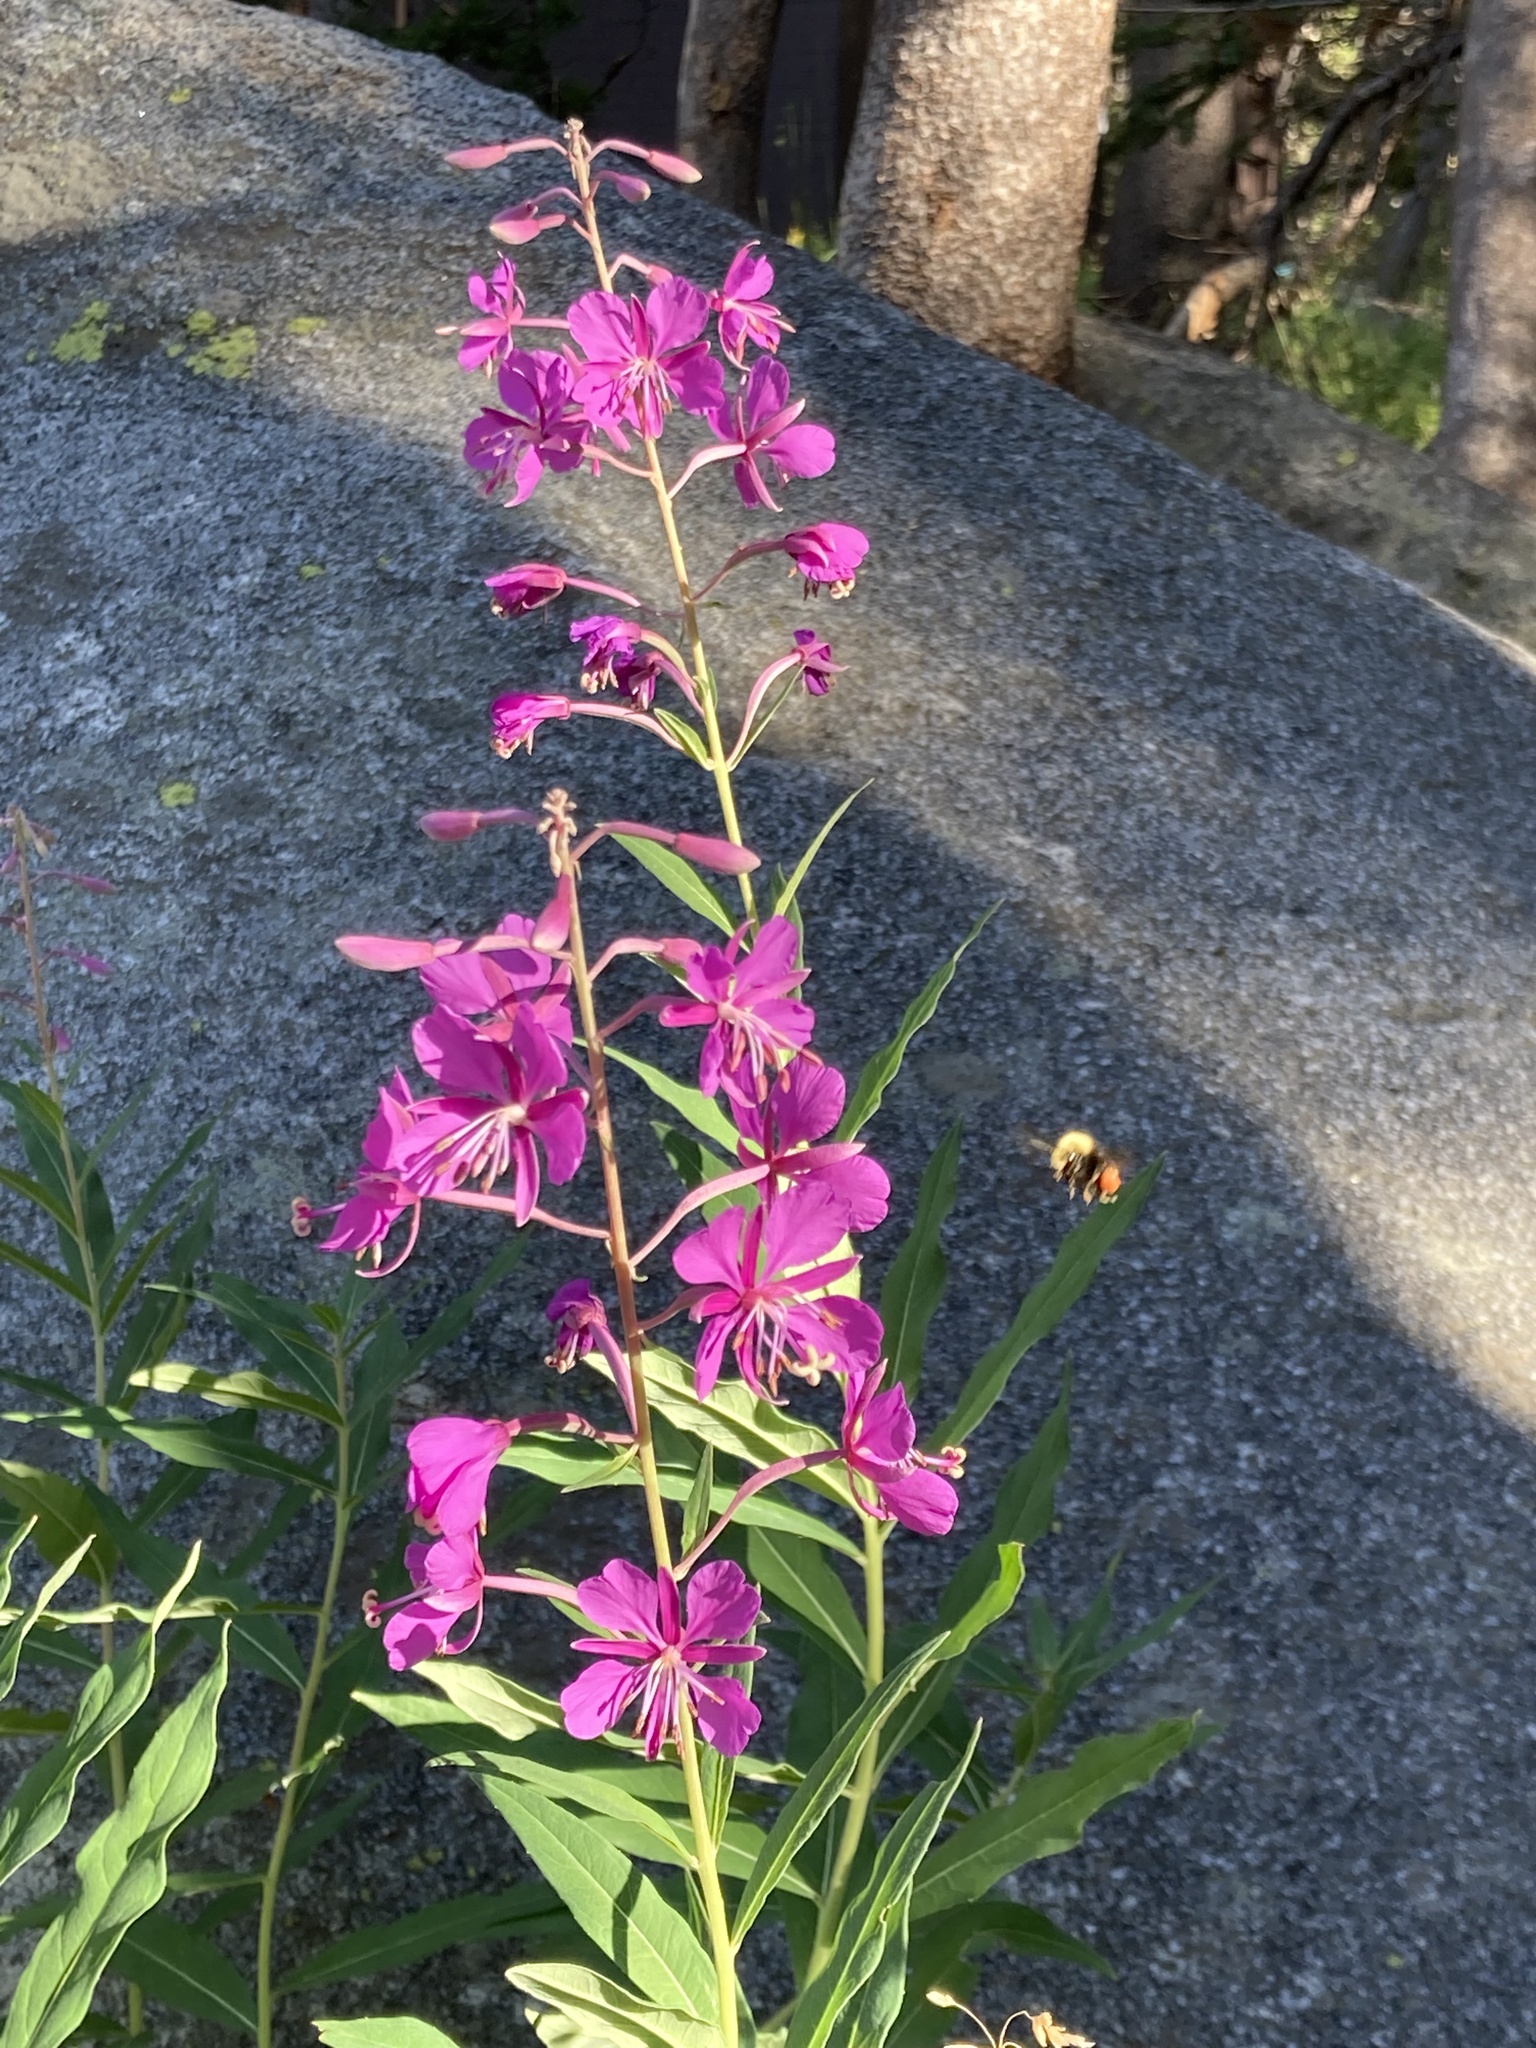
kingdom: Animalia
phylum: Arthropoda
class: Insecta
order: Hymenoptera
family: Apidae
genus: Bombus
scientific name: Bombus vandykei
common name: Van dyke bumble bee
